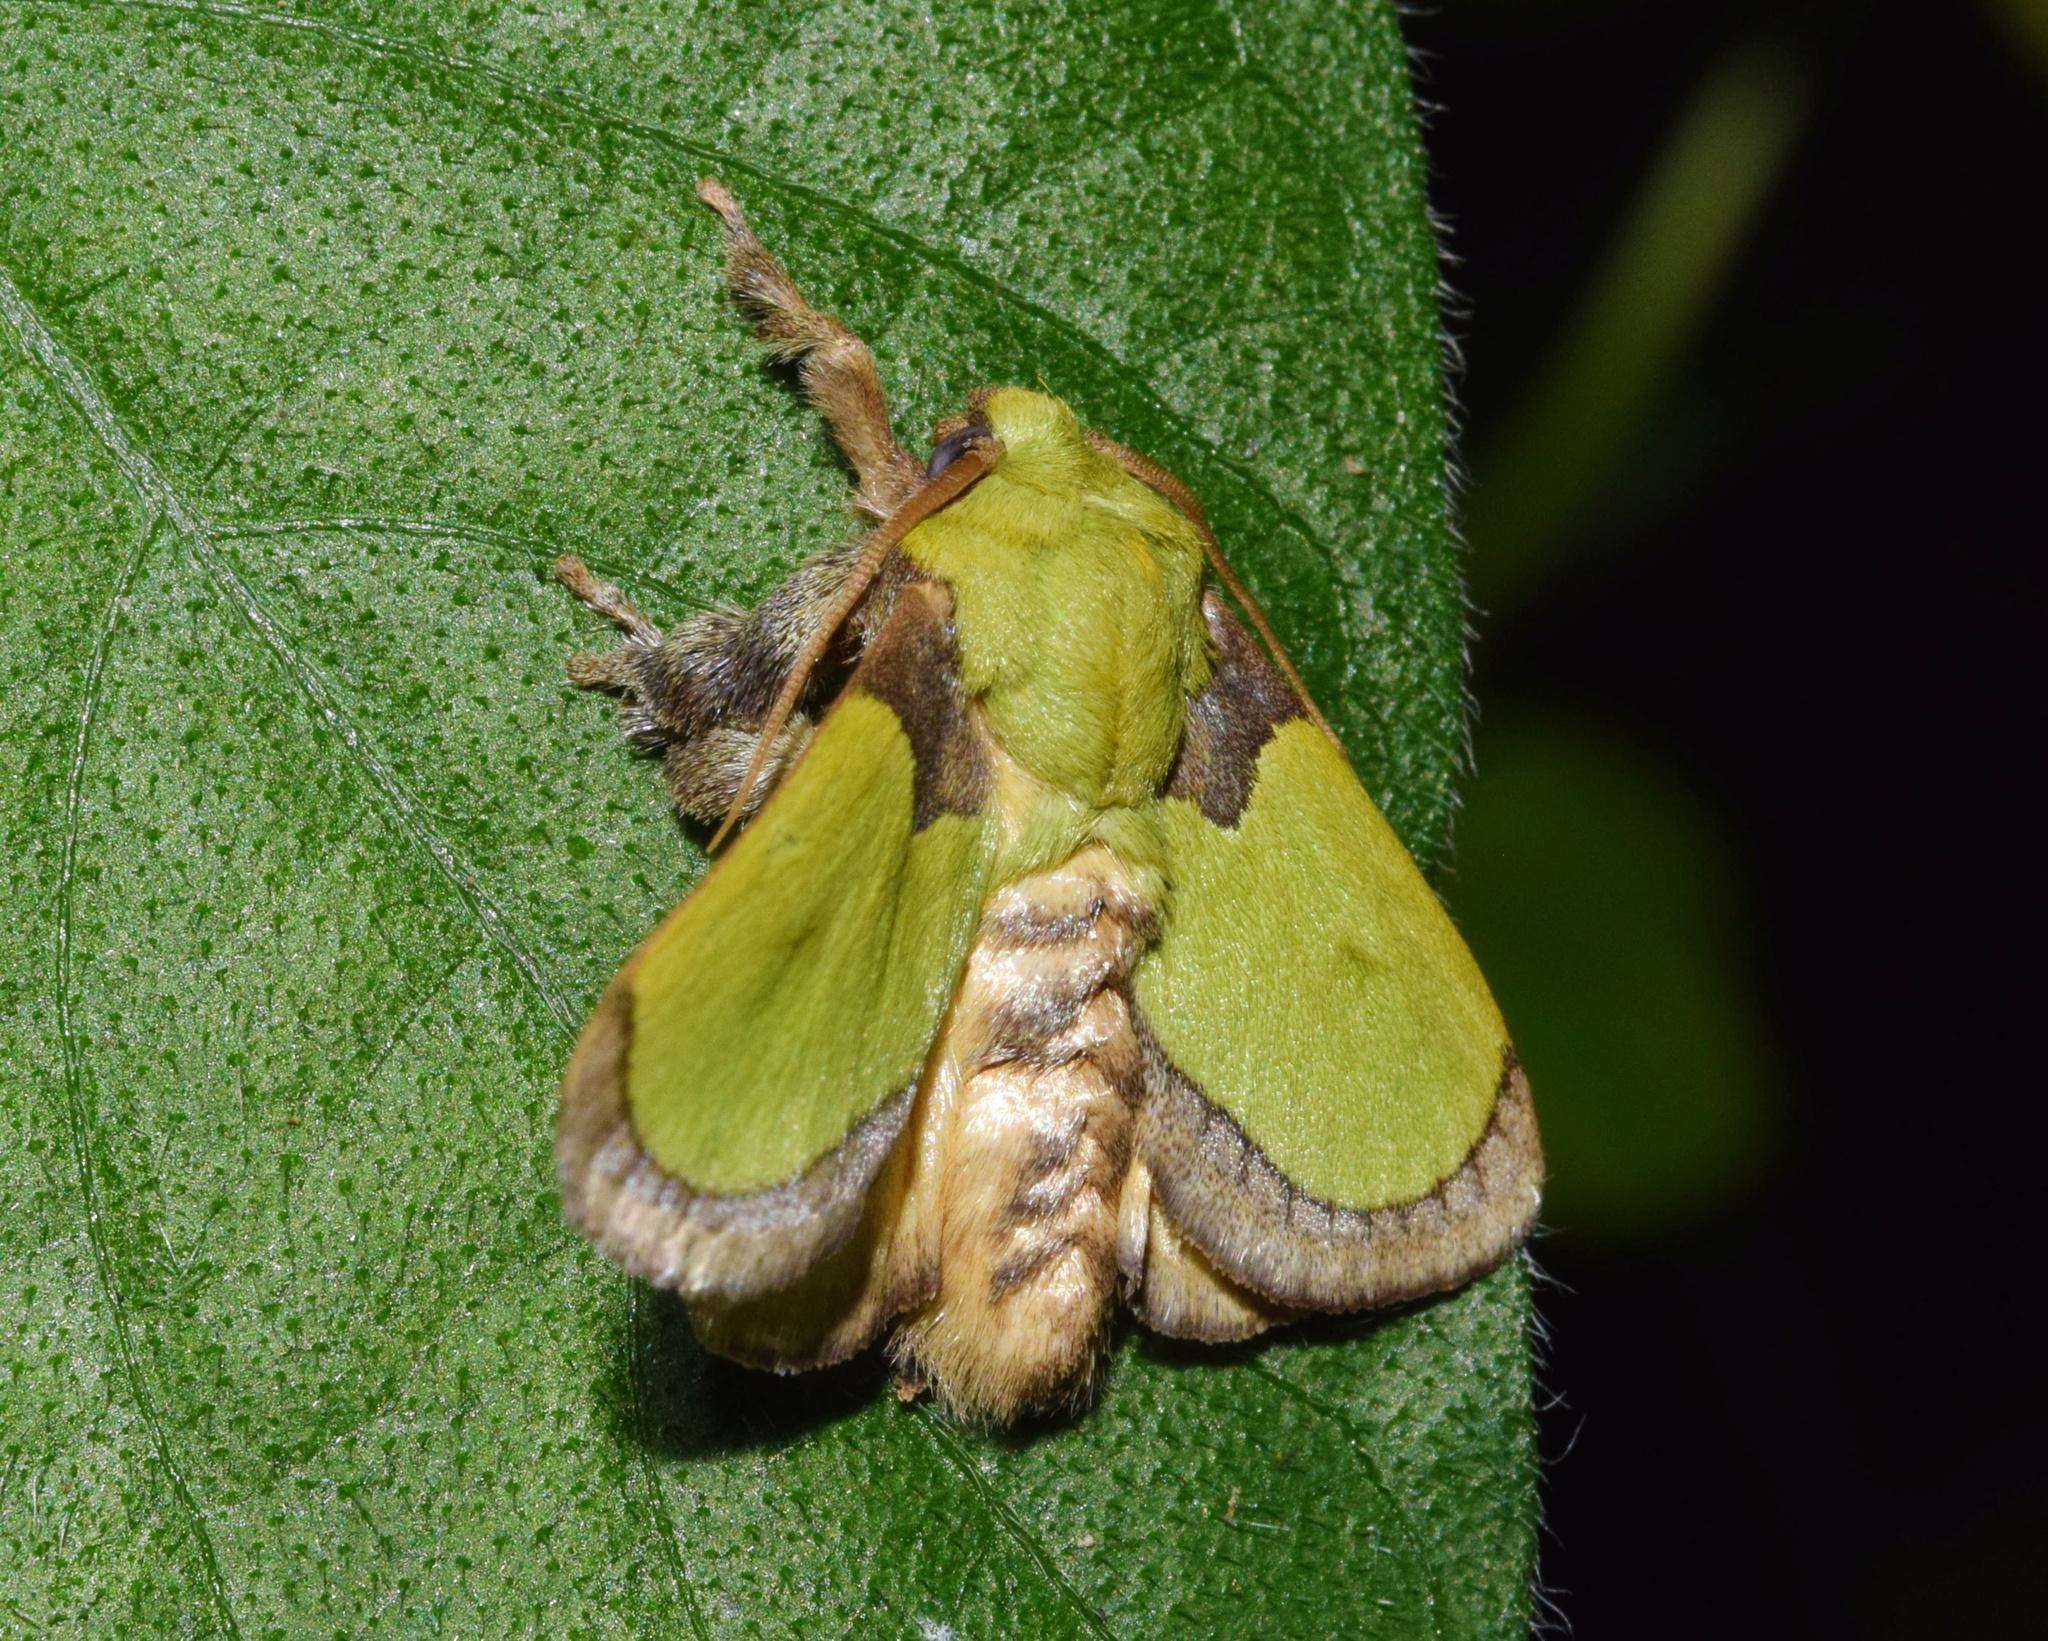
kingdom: Animalia
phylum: Arthropoda
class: Insecta
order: Lepidoptera
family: Limacodidae
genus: Parasa
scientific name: Parasa vivida
